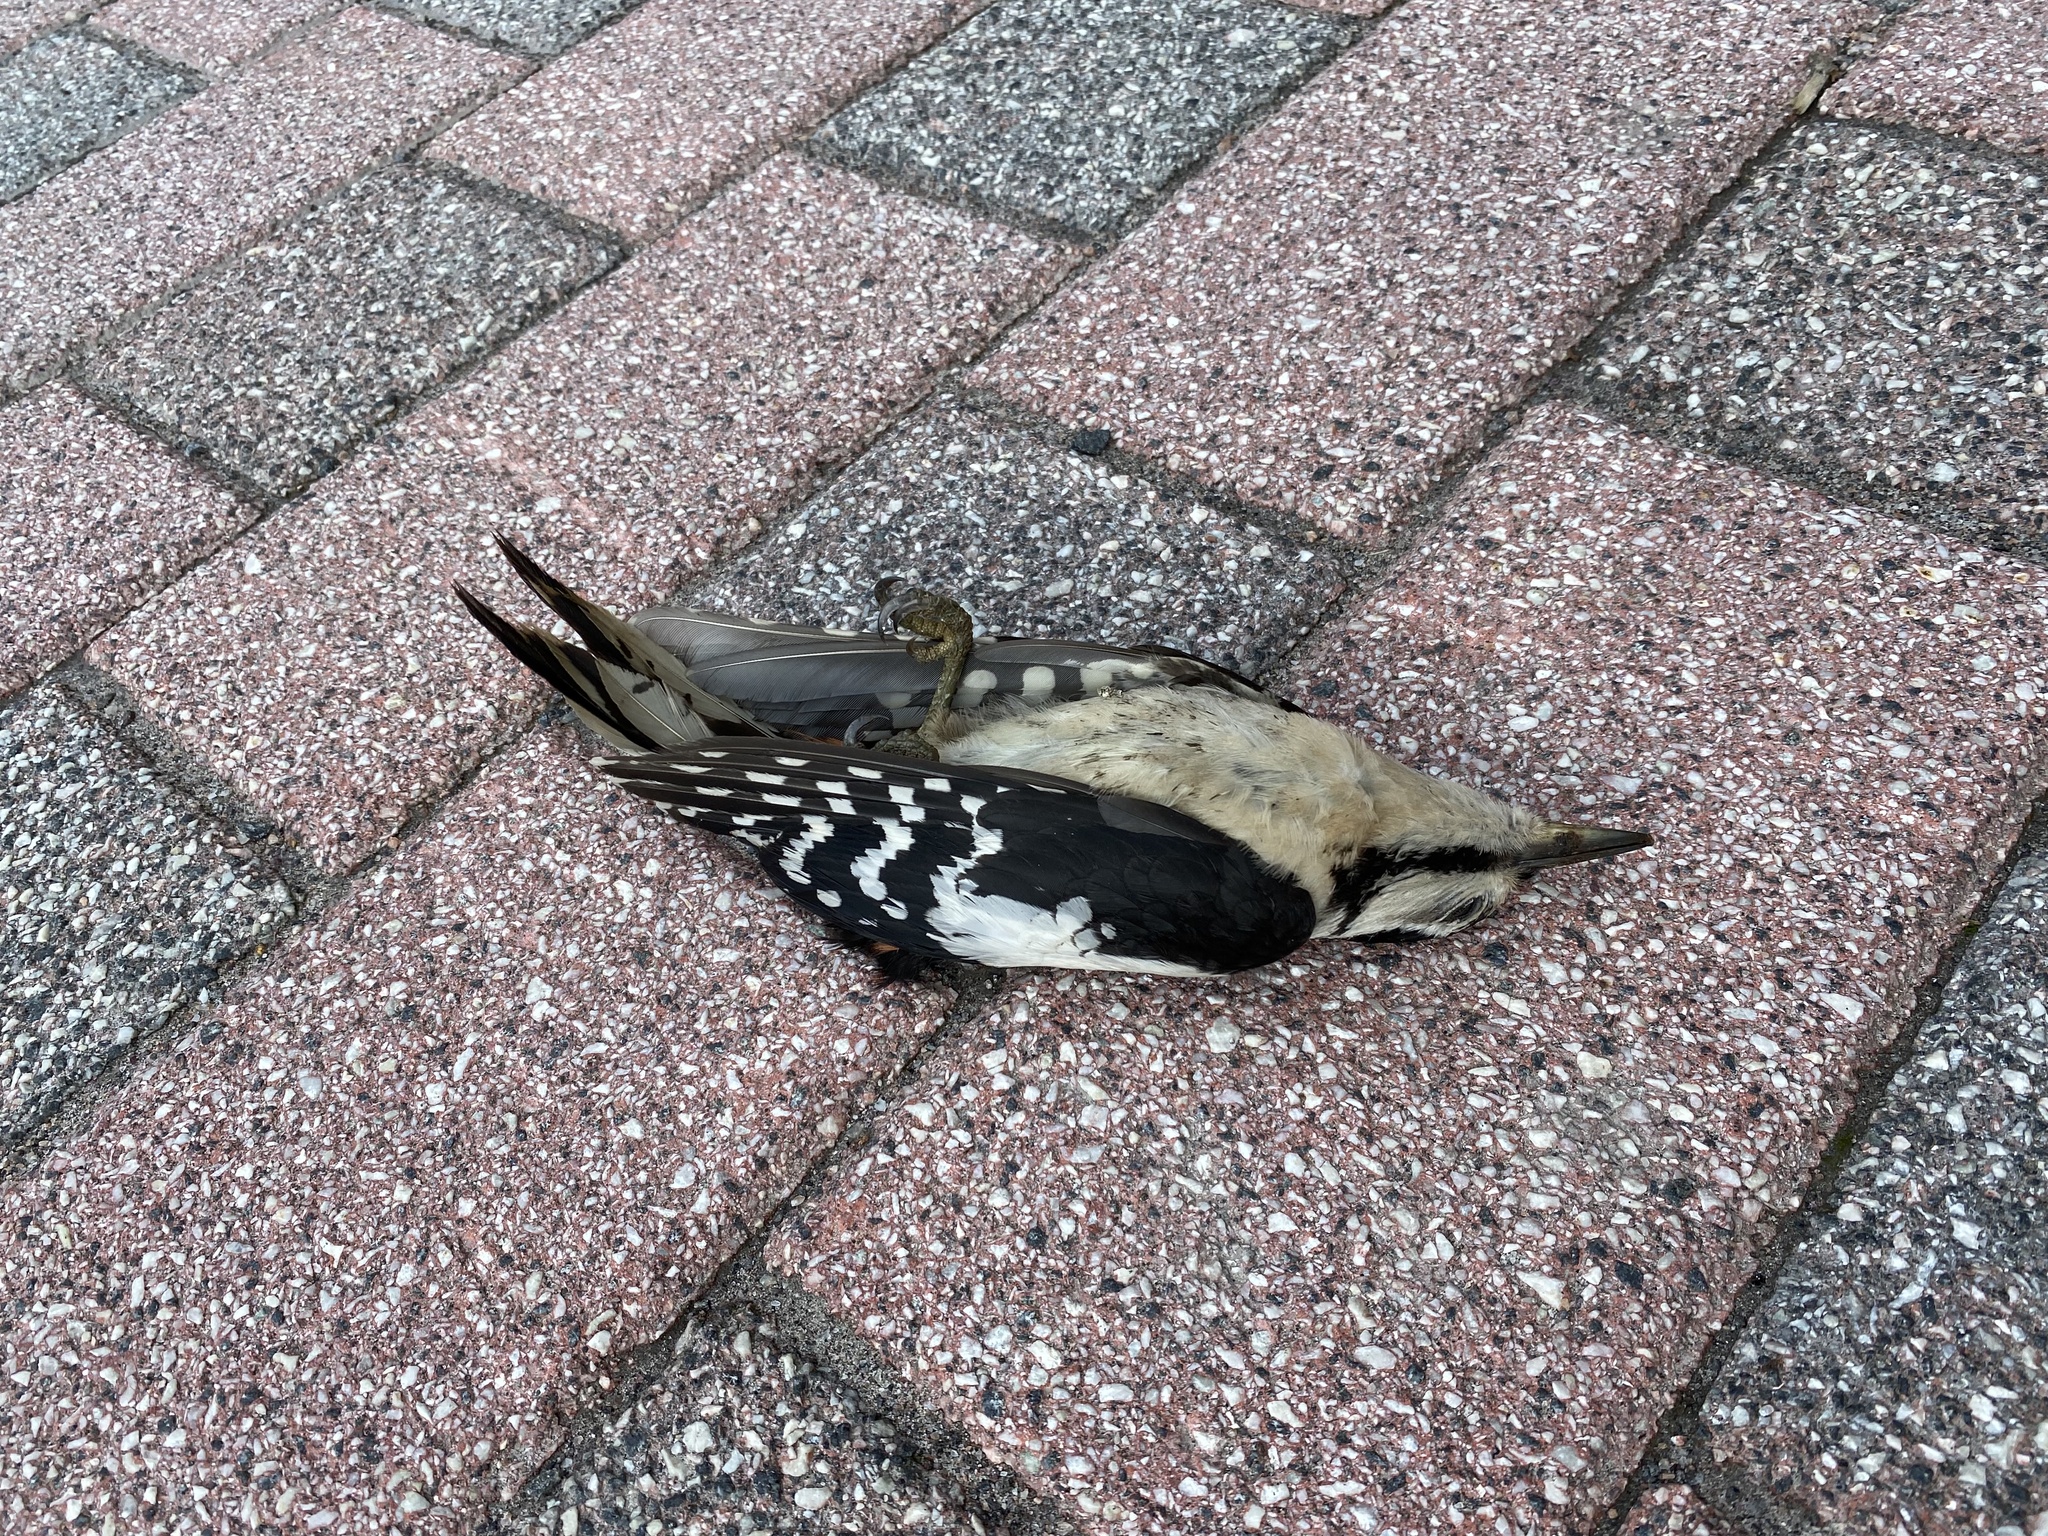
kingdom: Animalia
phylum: Chordata
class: Aves
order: Piciformes
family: Picidae
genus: Dendrocopos
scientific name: Dendrocopos major
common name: Great spotted woodpecker
